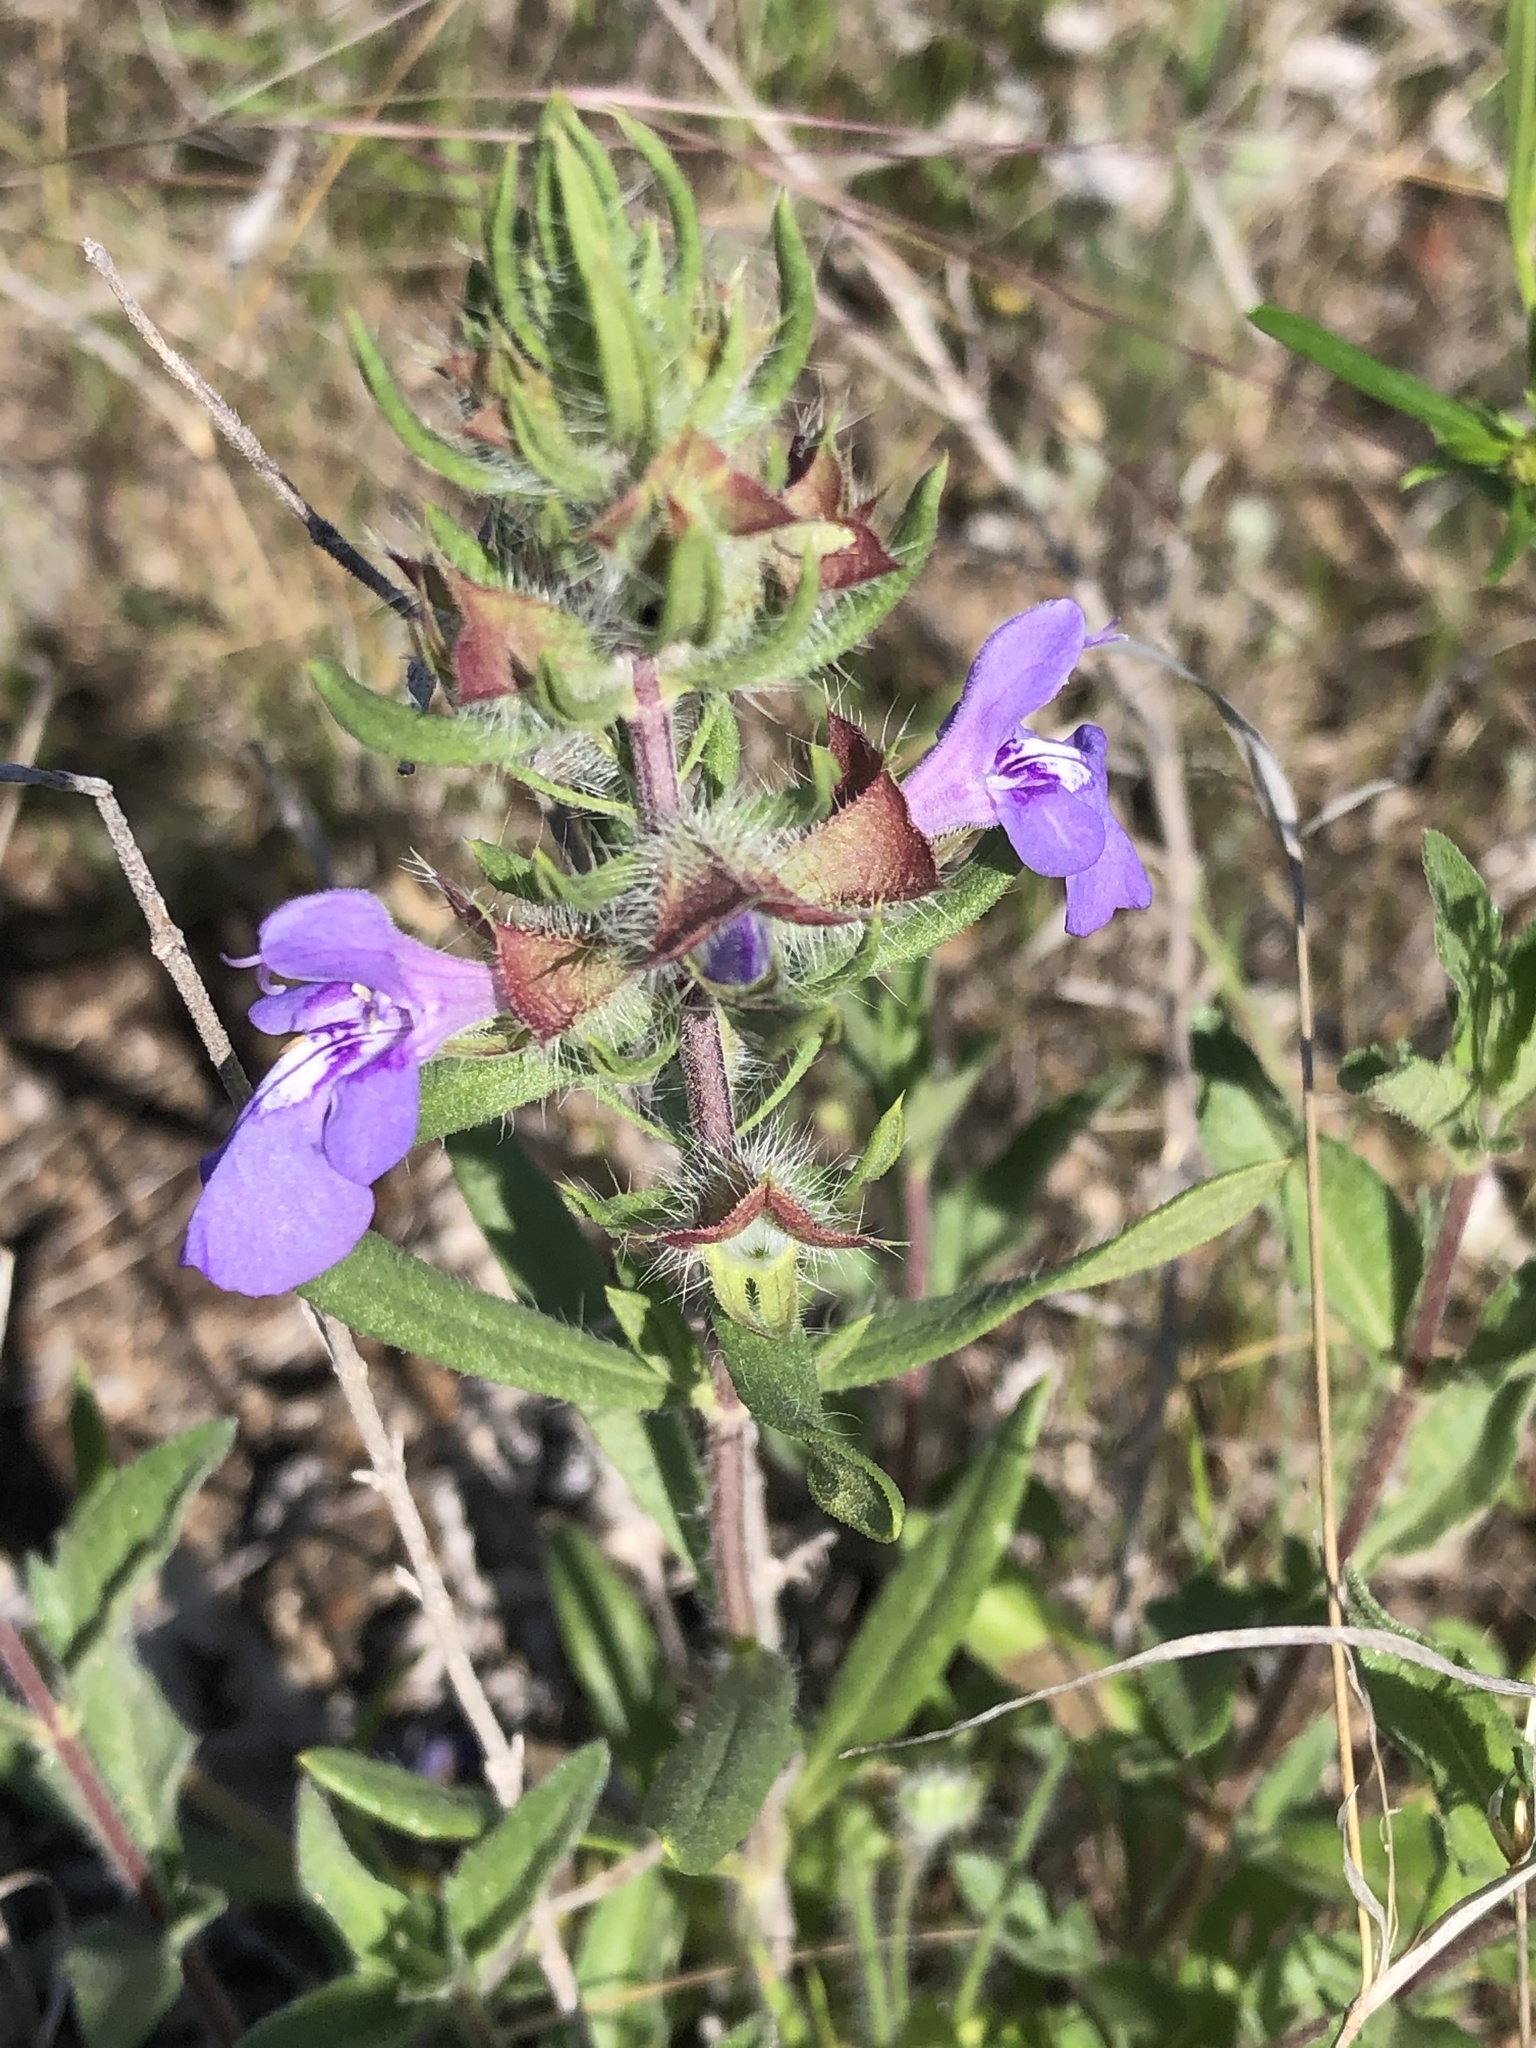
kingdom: Plantae
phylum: Tracheophyta
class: Magnoliopsida
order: Lamiales
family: Lamiaceae
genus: Salvia
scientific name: Salvia texana
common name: Texas sage
